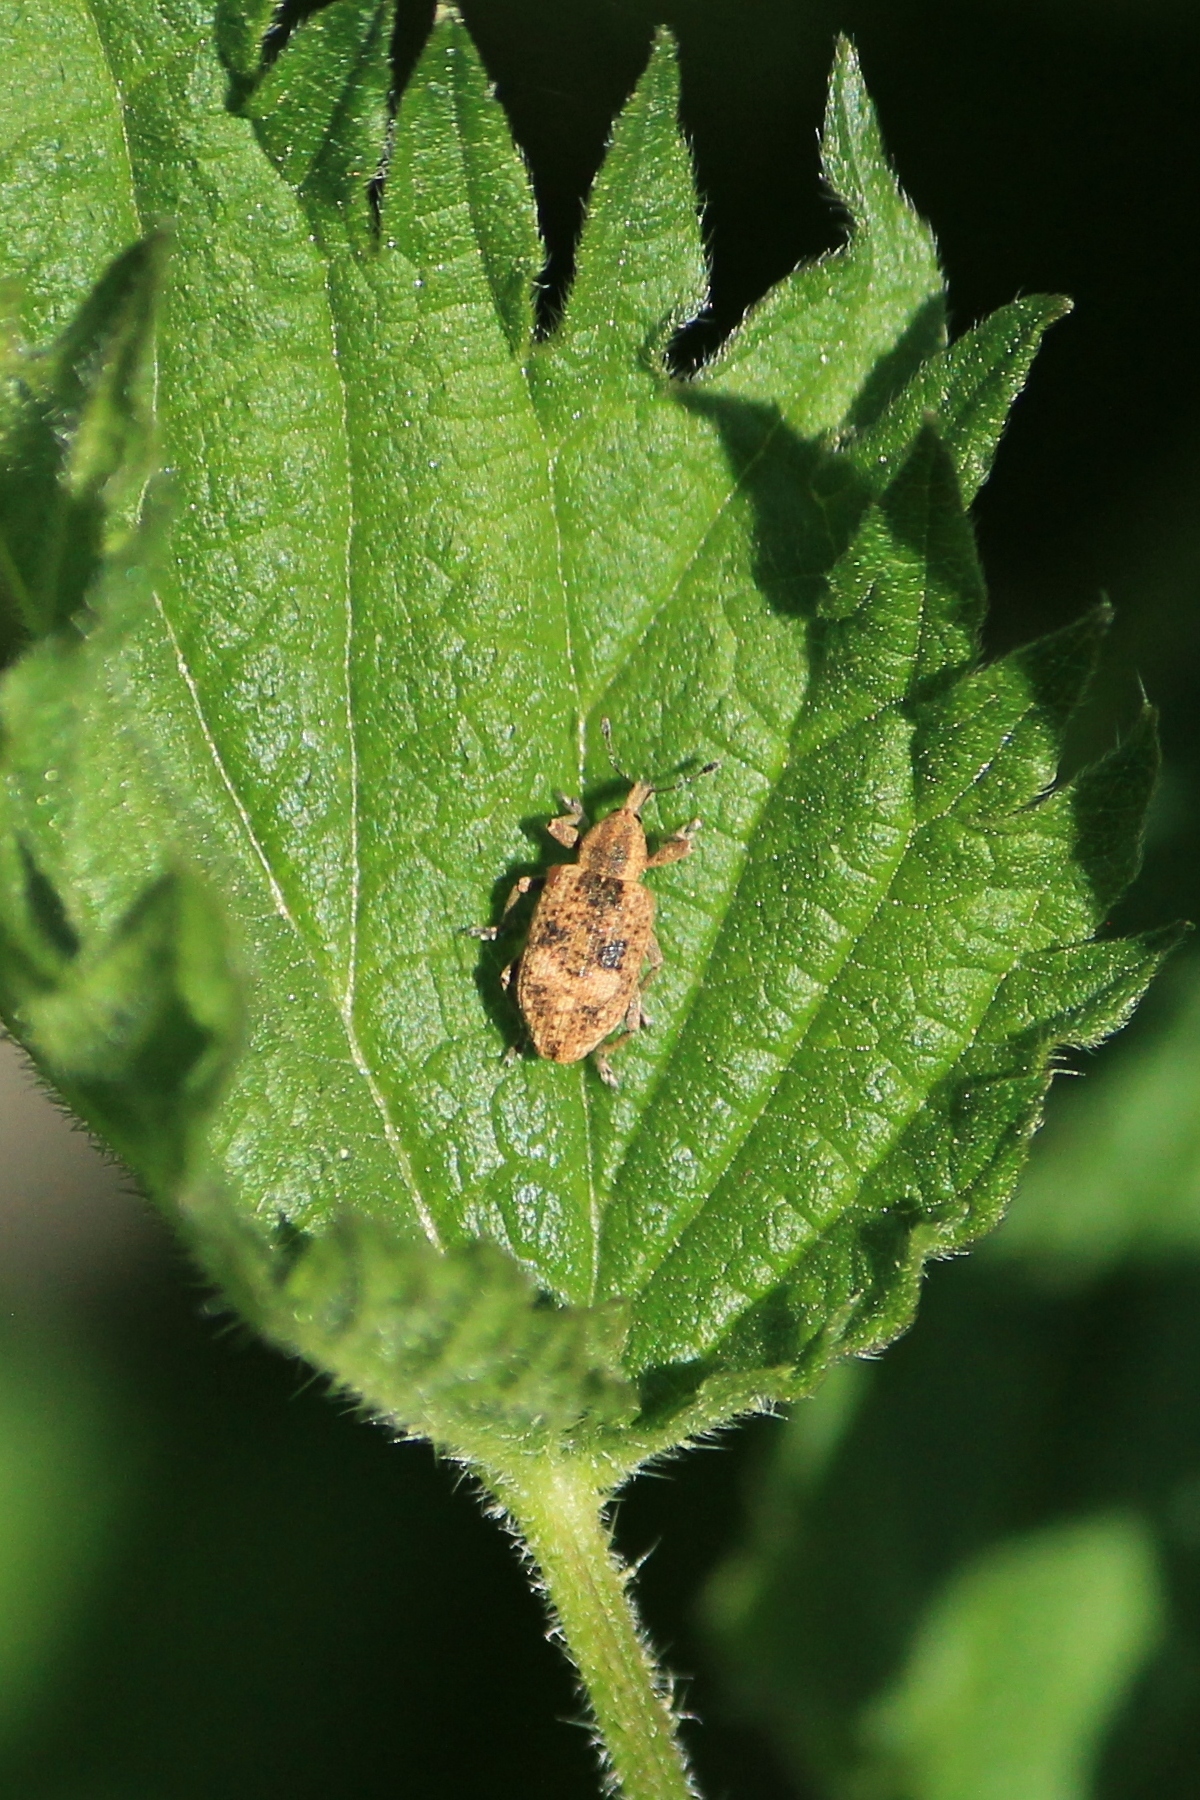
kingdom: Animalia
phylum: Arthropoda
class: Insecta
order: Coleoptera
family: Curculionidae
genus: Hypera
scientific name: Hypera rumicis
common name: Weevil
